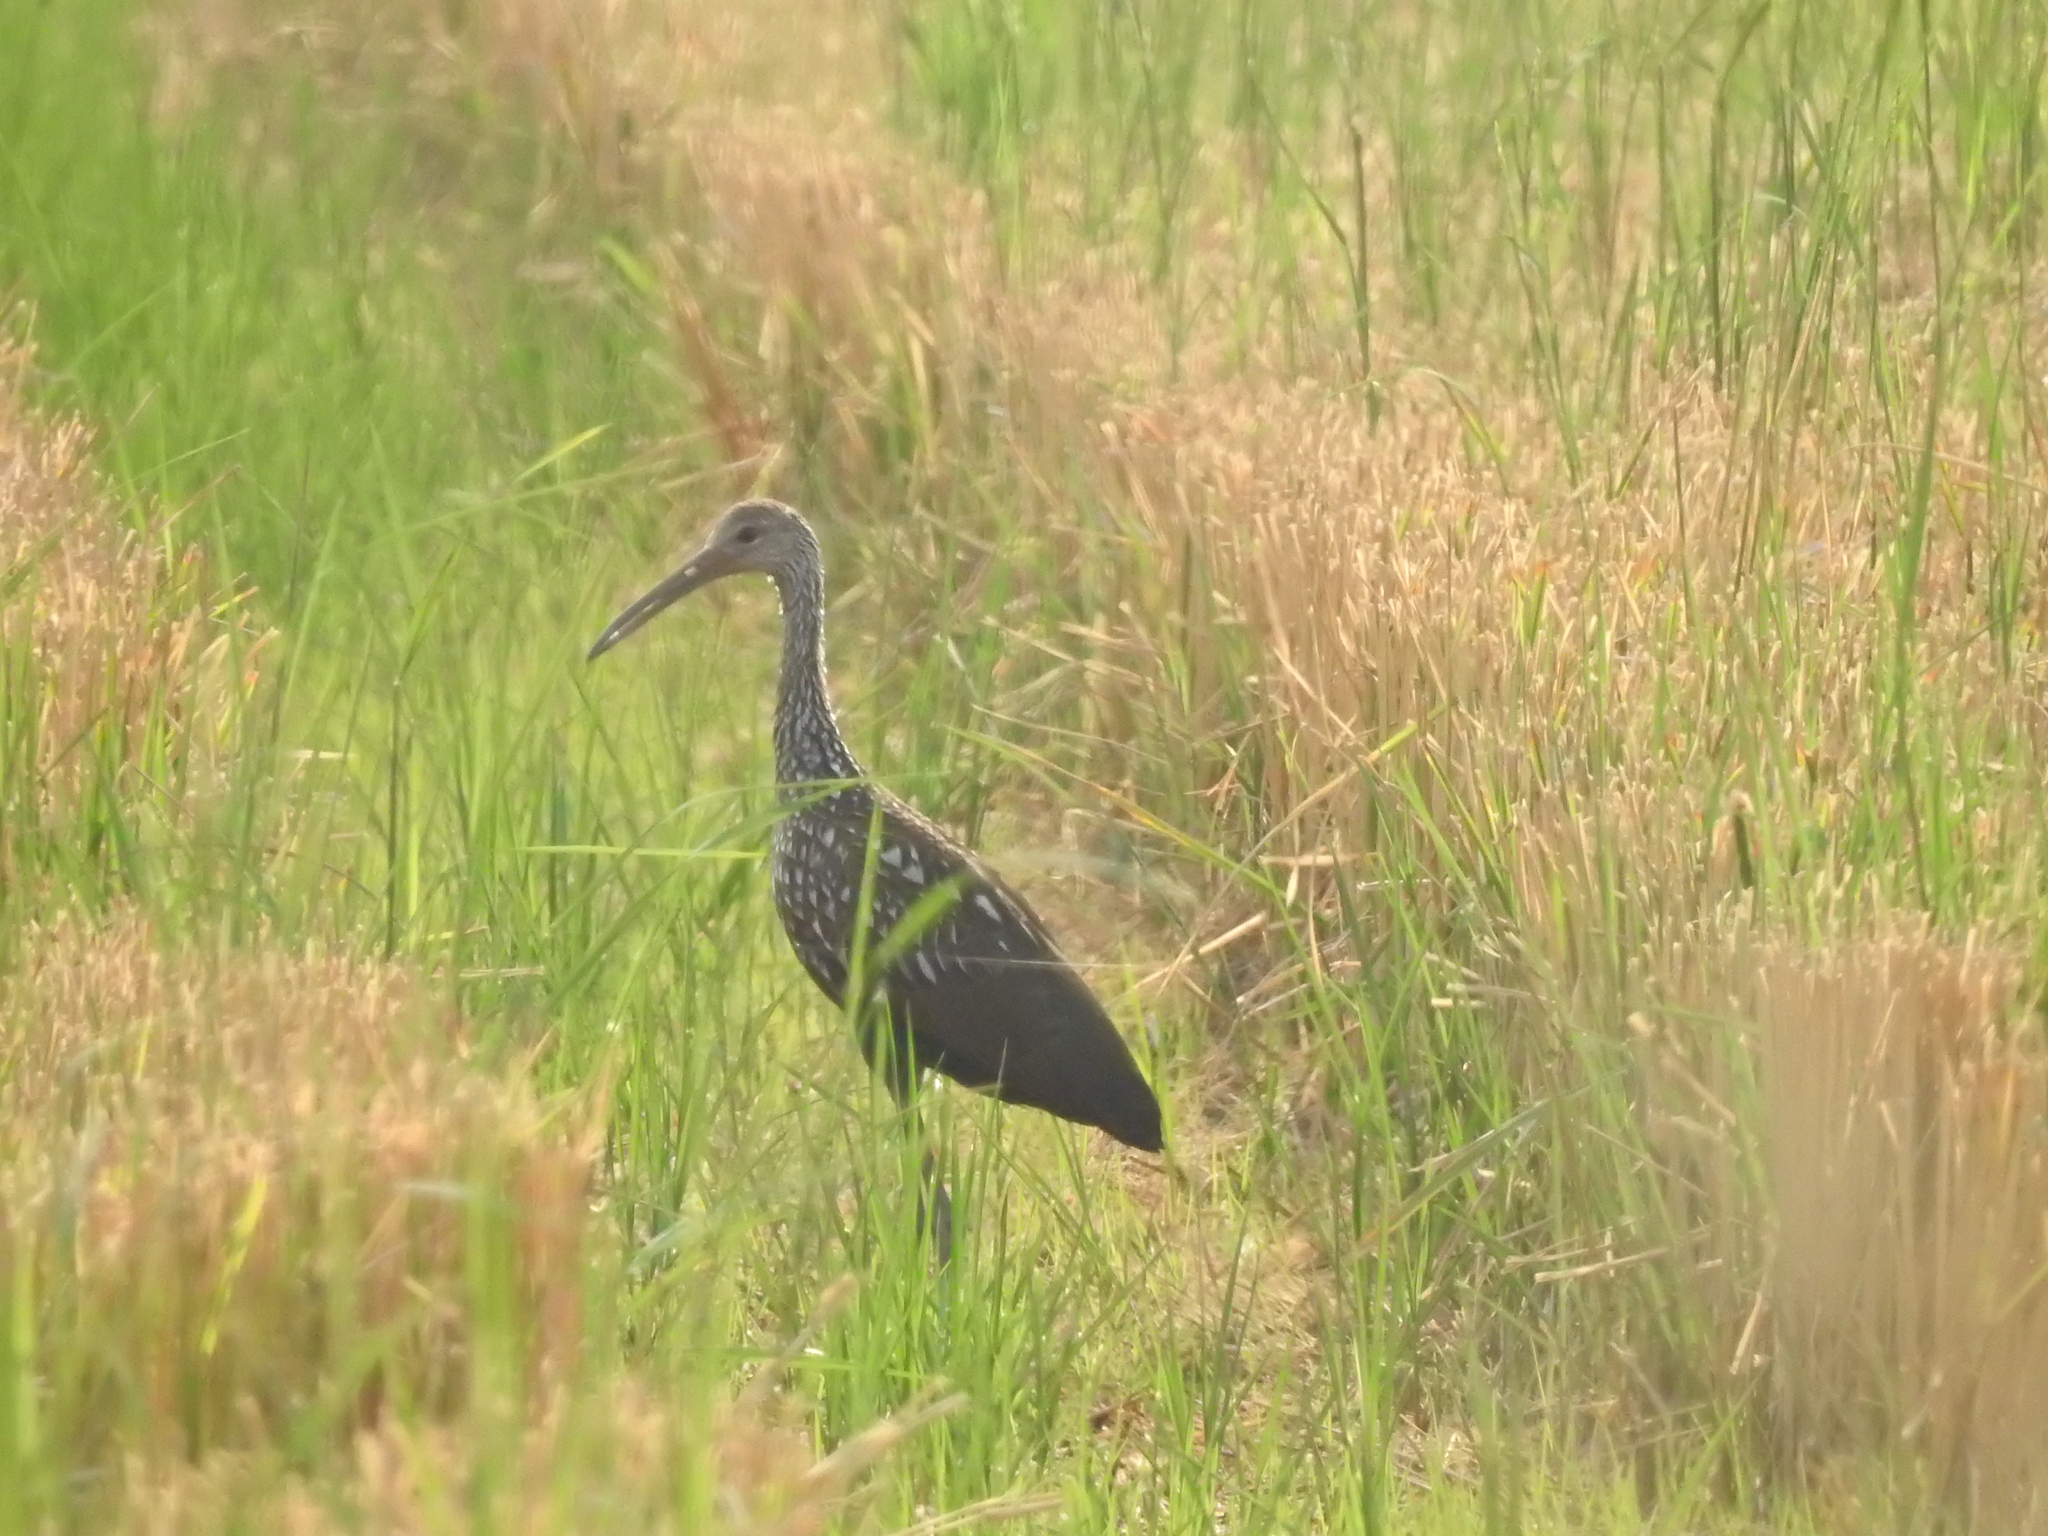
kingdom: Animalia
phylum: Chordata
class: Aves
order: Gruiformes
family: Aramidae
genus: Aramus
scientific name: Aramus guarauna
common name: Limpkin
